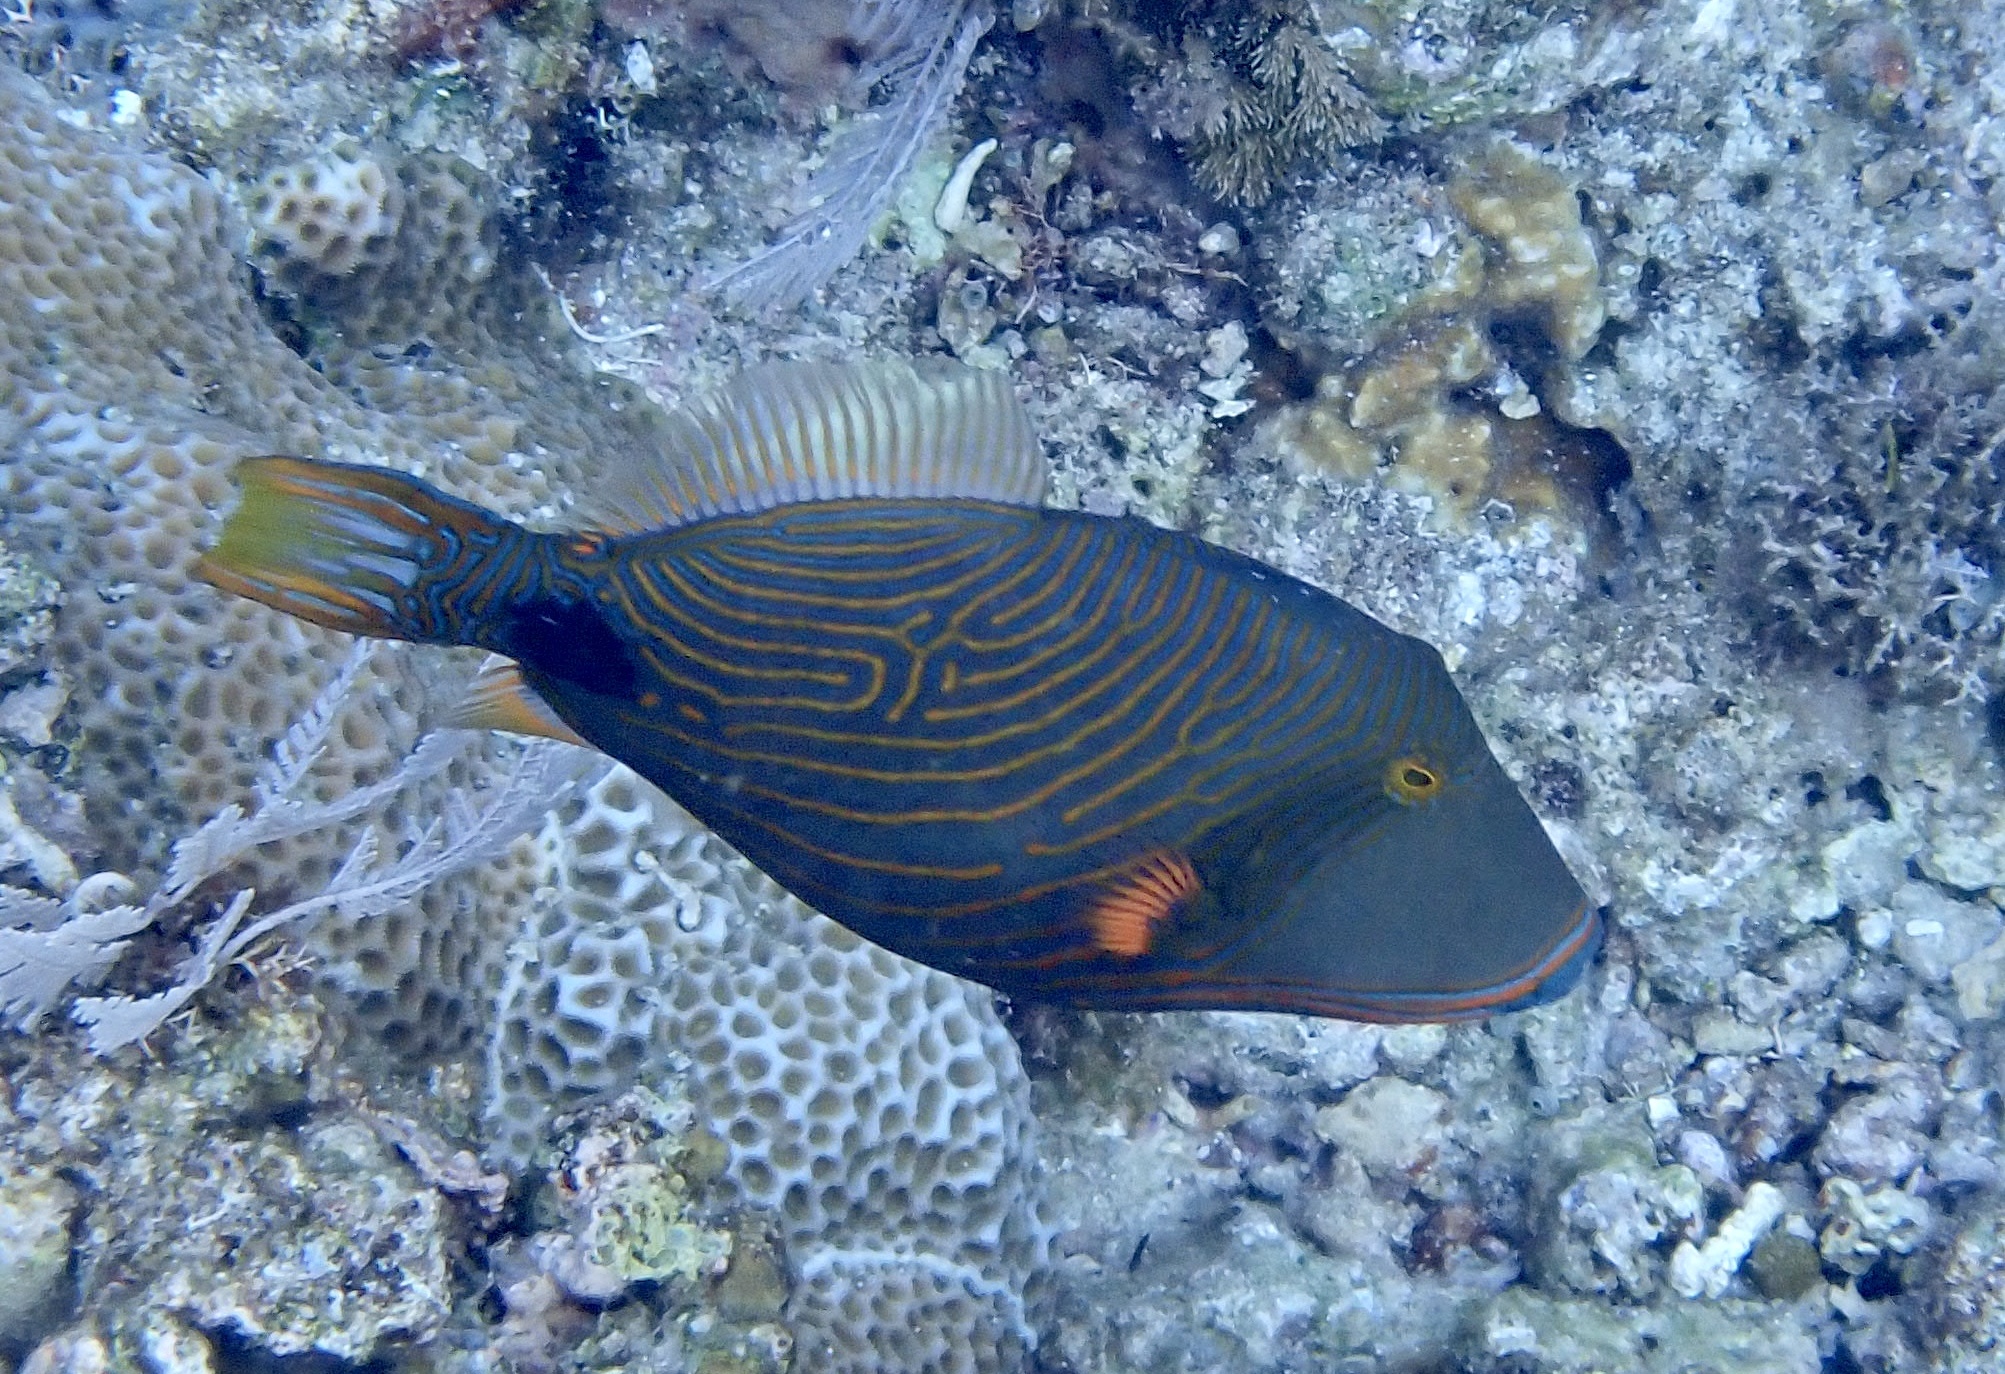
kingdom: Animalia
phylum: Chordata
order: Tetraodontiformes
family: Balistidae
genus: Balistapus
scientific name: Balistapus undulatus
